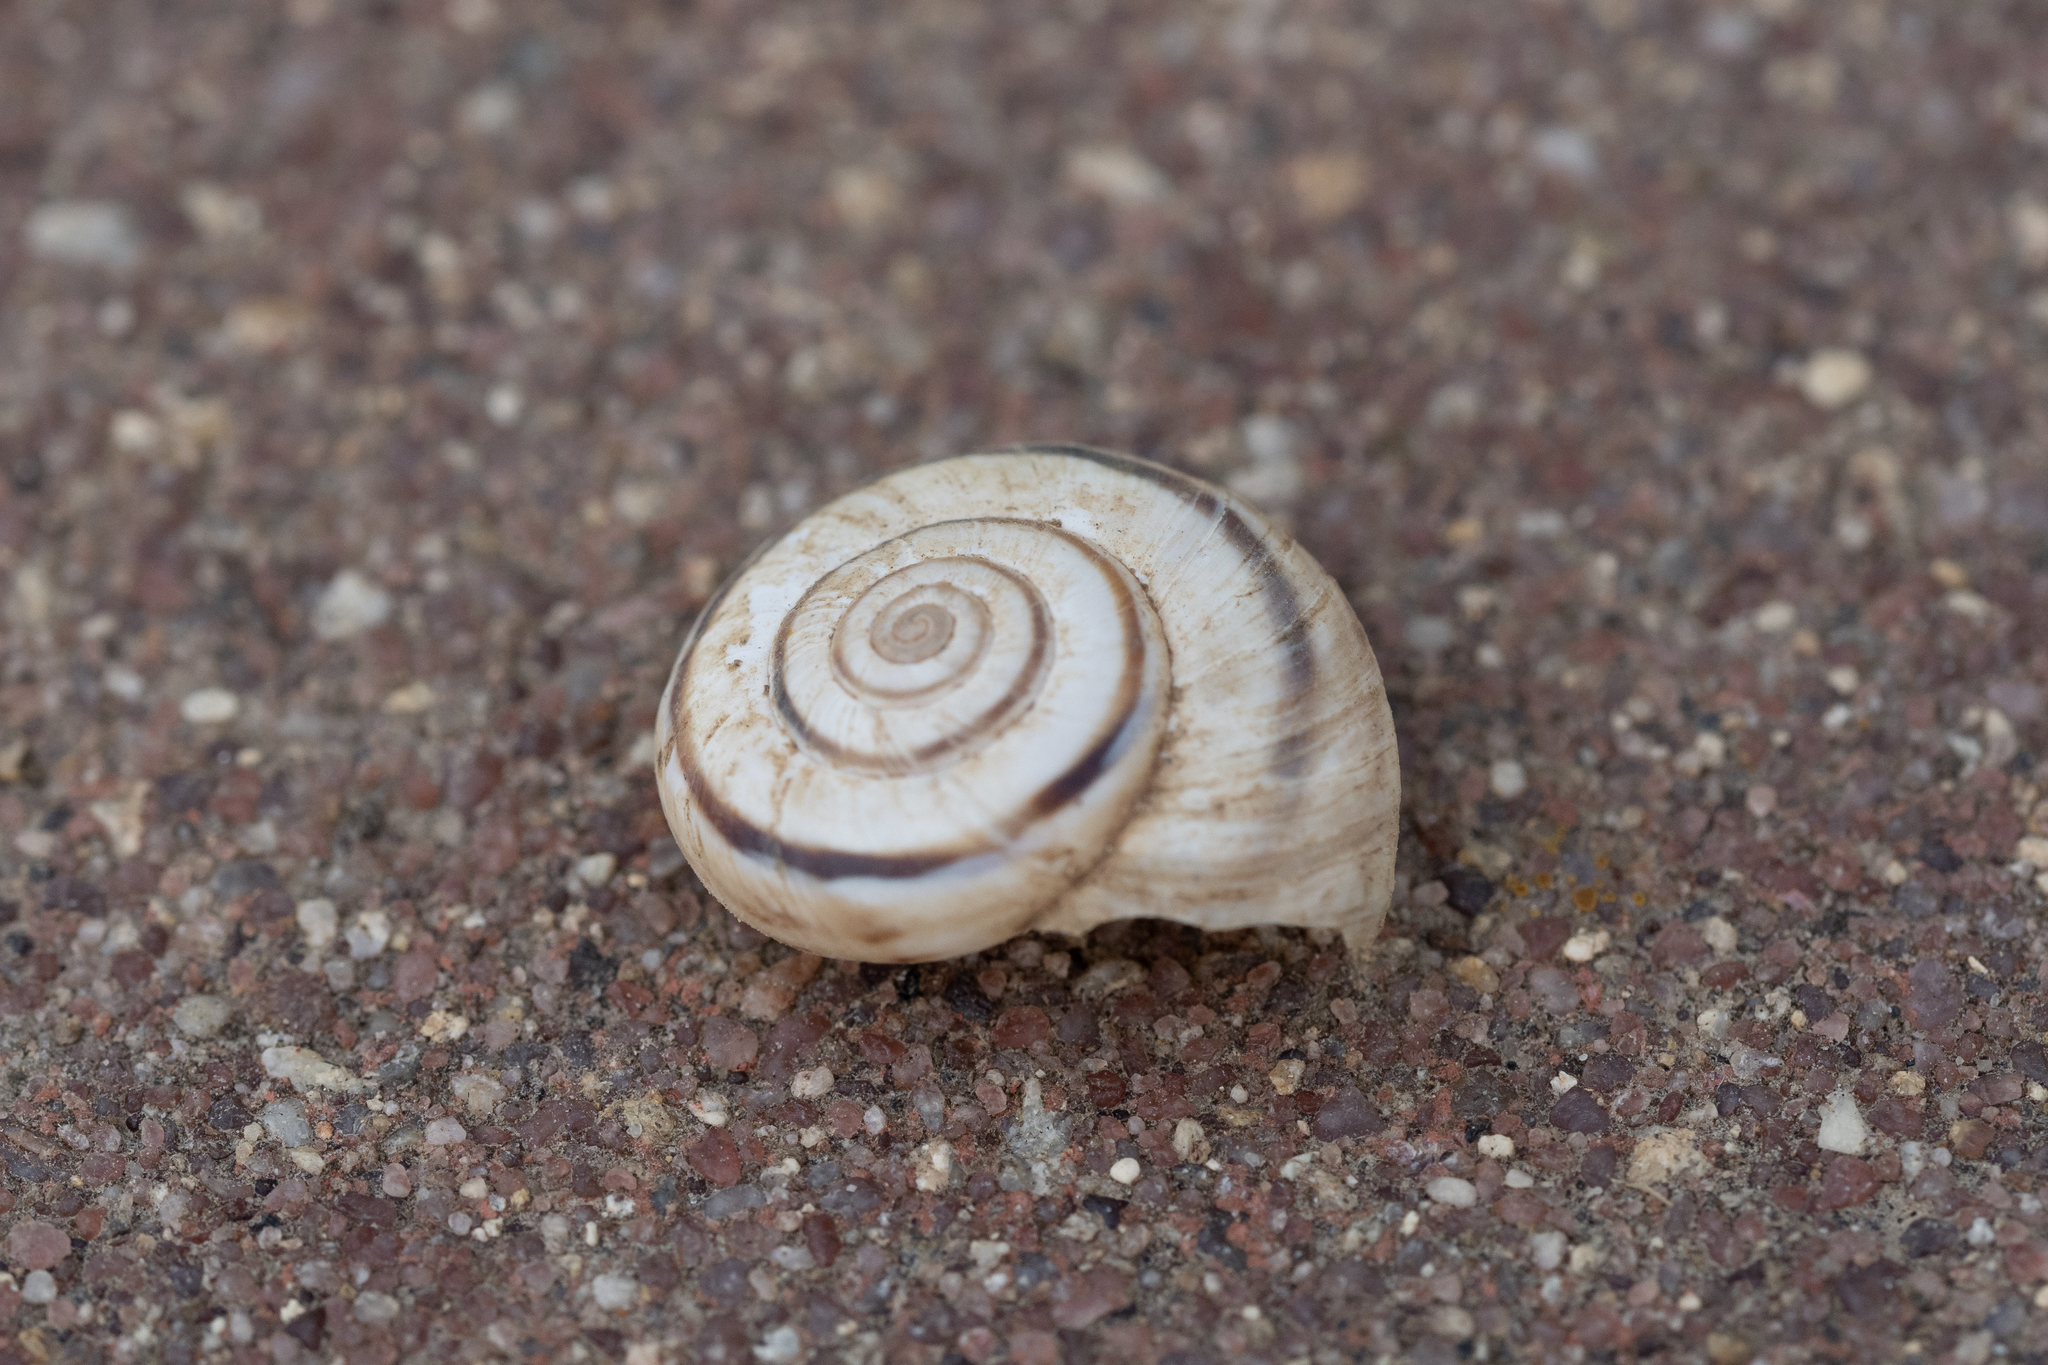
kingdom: Animalia
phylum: Mollusca
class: Gastropoda
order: Stylommatophora
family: Geomitridae
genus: Xerolenta
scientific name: Xerolenta obvia
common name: White heath snail
